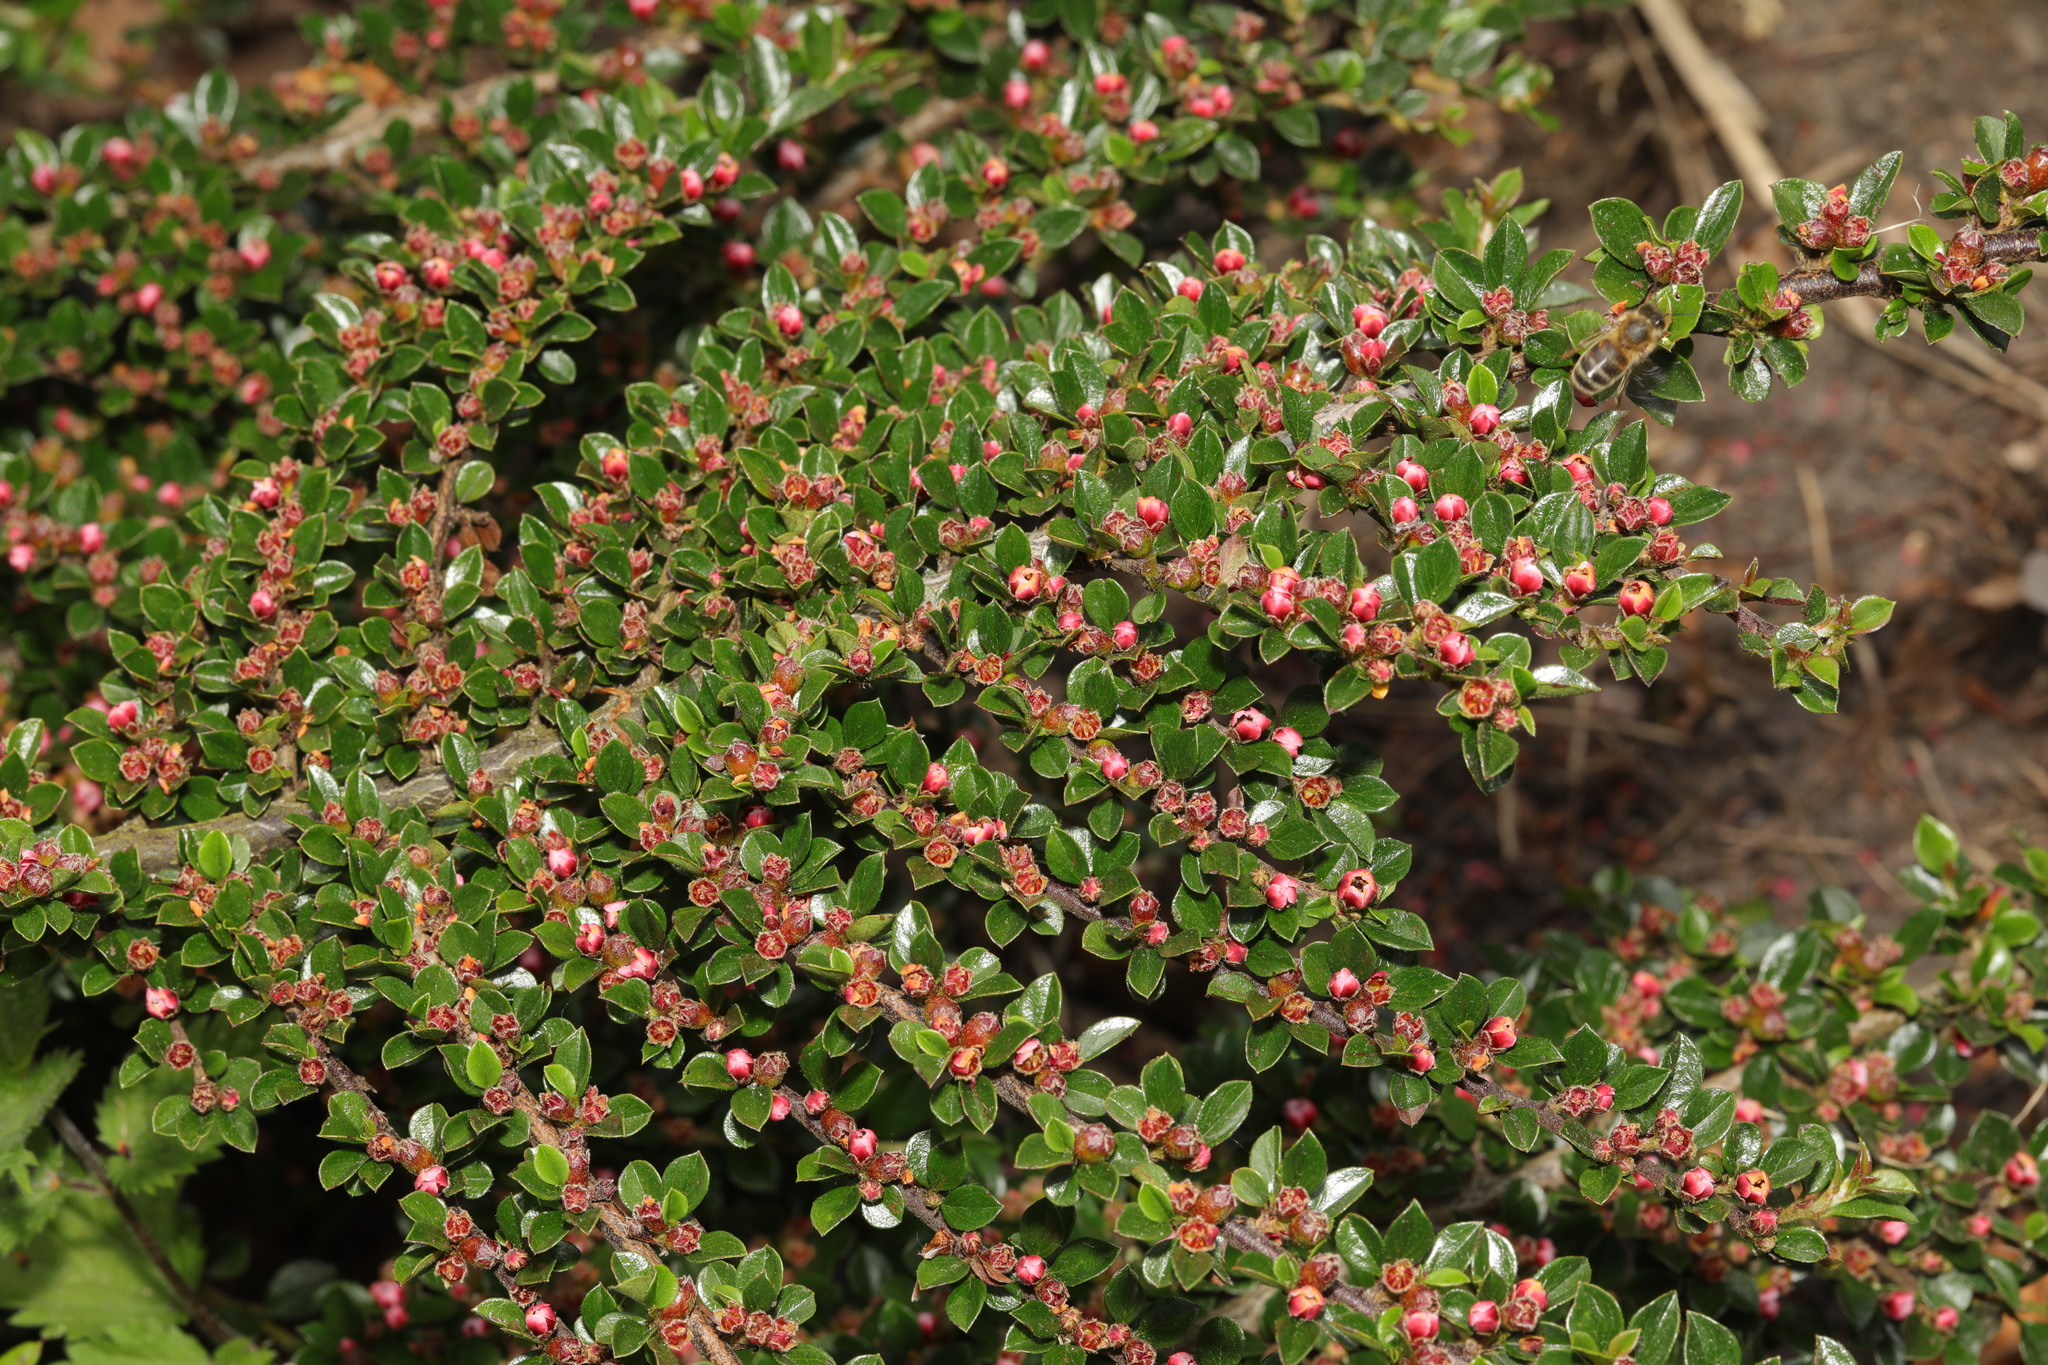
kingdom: Plantae
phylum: Tracheophyta
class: Magnoliopsida
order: Rosales
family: Rosaceae
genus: Cotoneaster
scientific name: Cotoneaster horizontalis
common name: Wall cotoneaster
